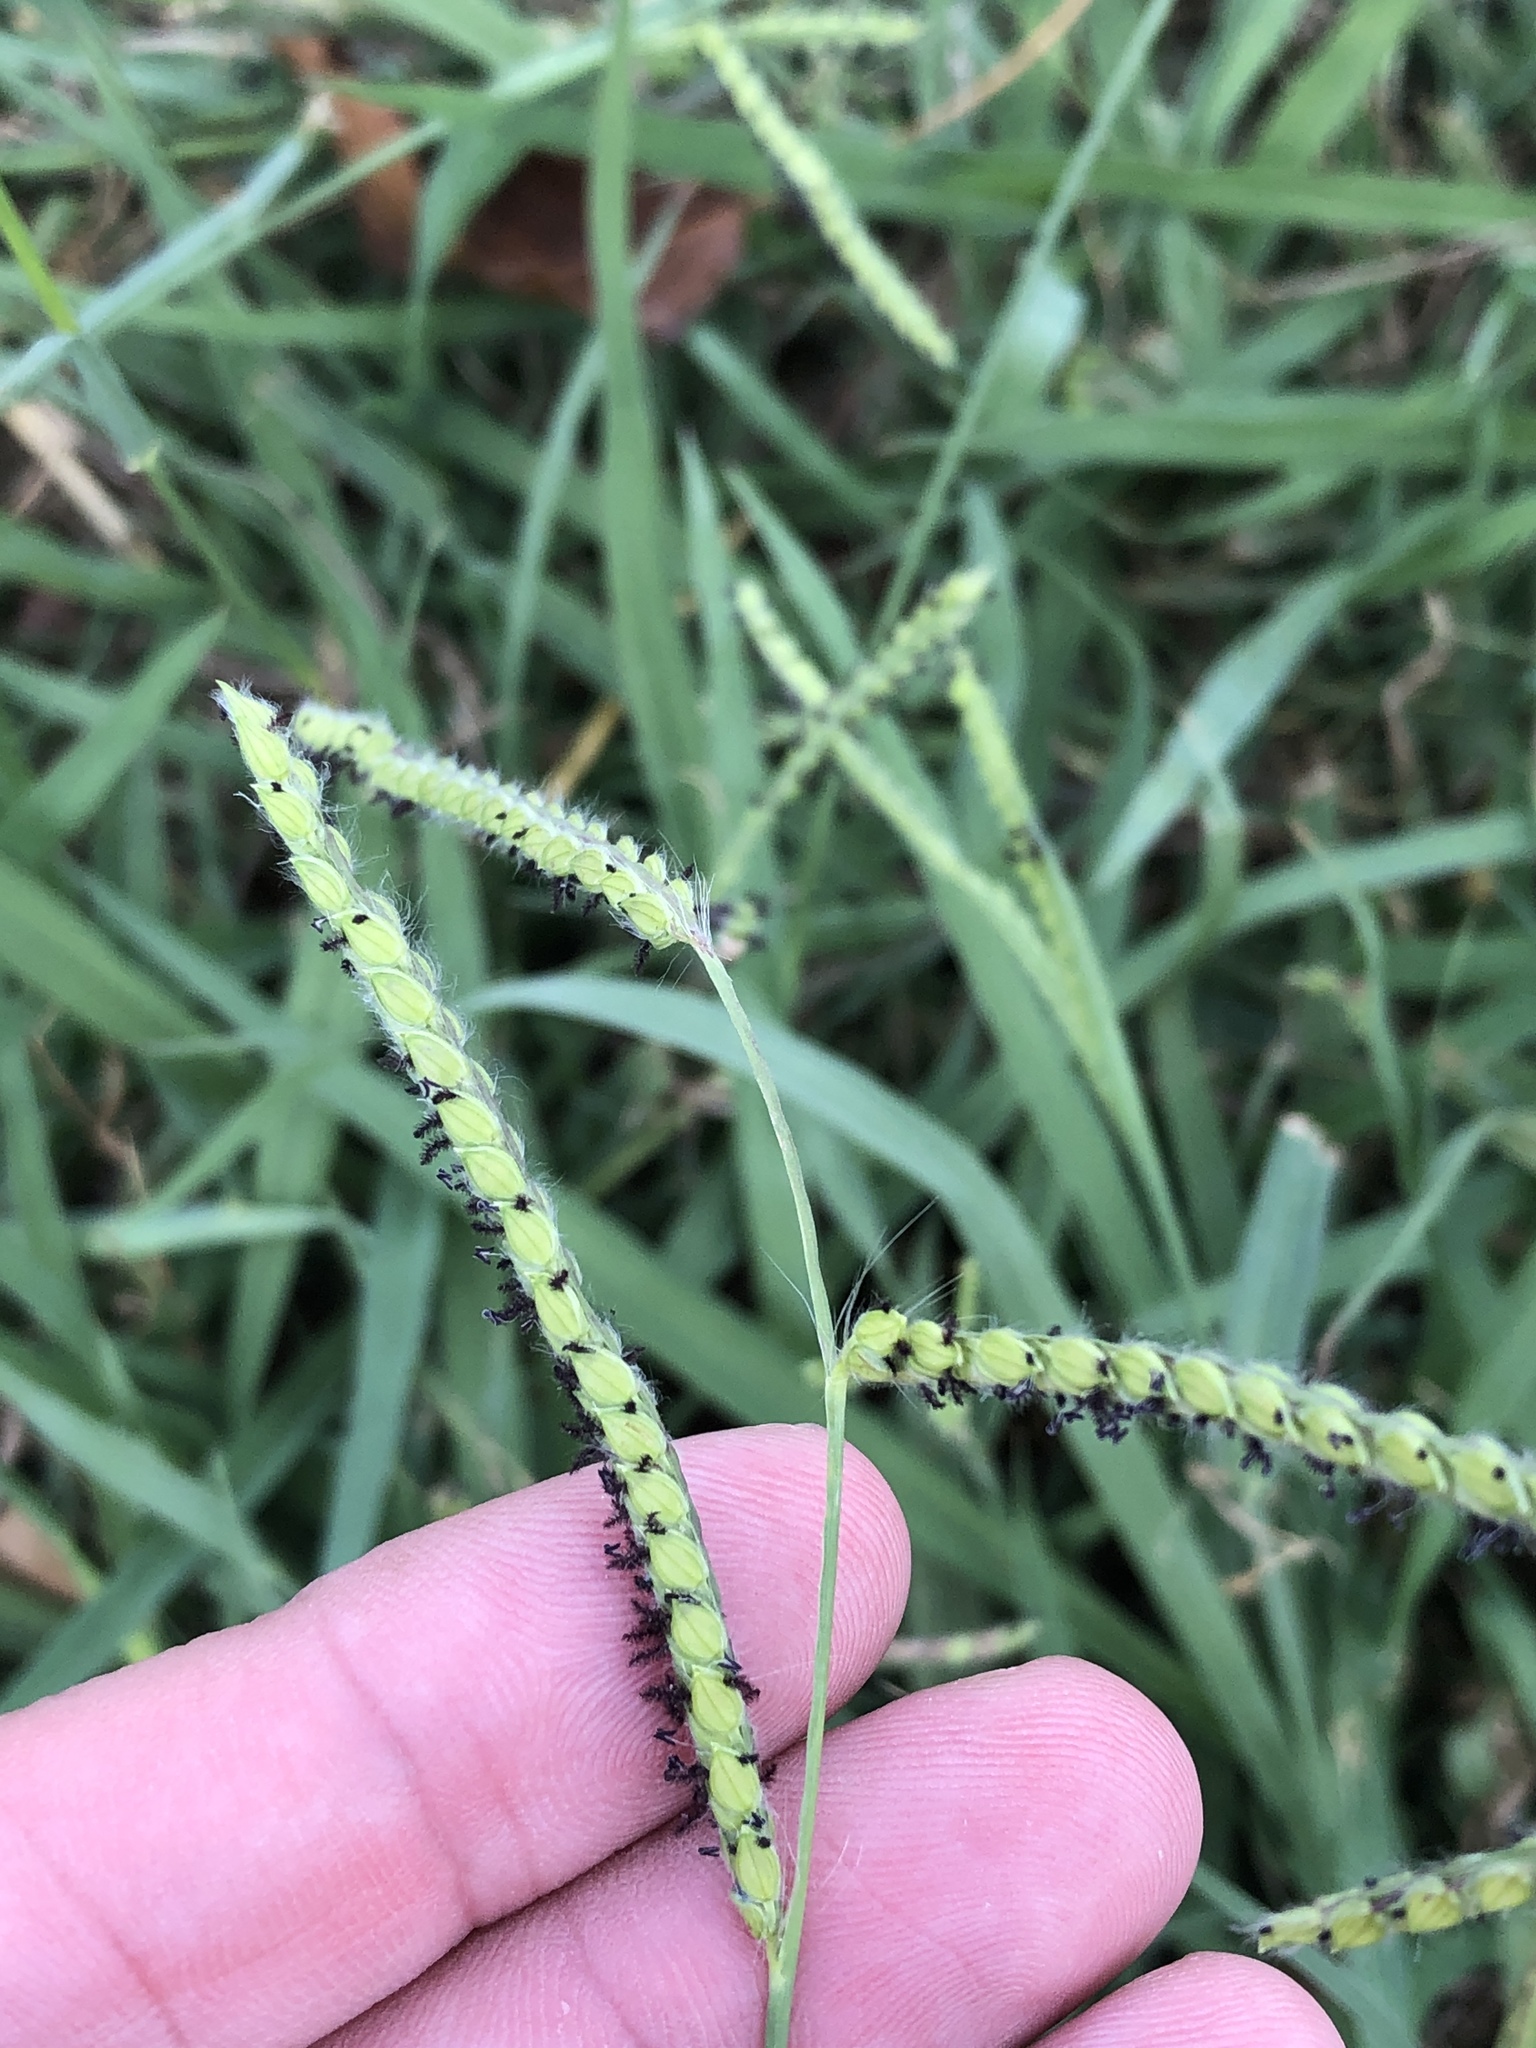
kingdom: Plantae
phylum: Tracheophyta
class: Liliopsida
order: Poales
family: Poaceae
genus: Paspalum
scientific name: Paspalum dilatatum
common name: Dallisgrass
